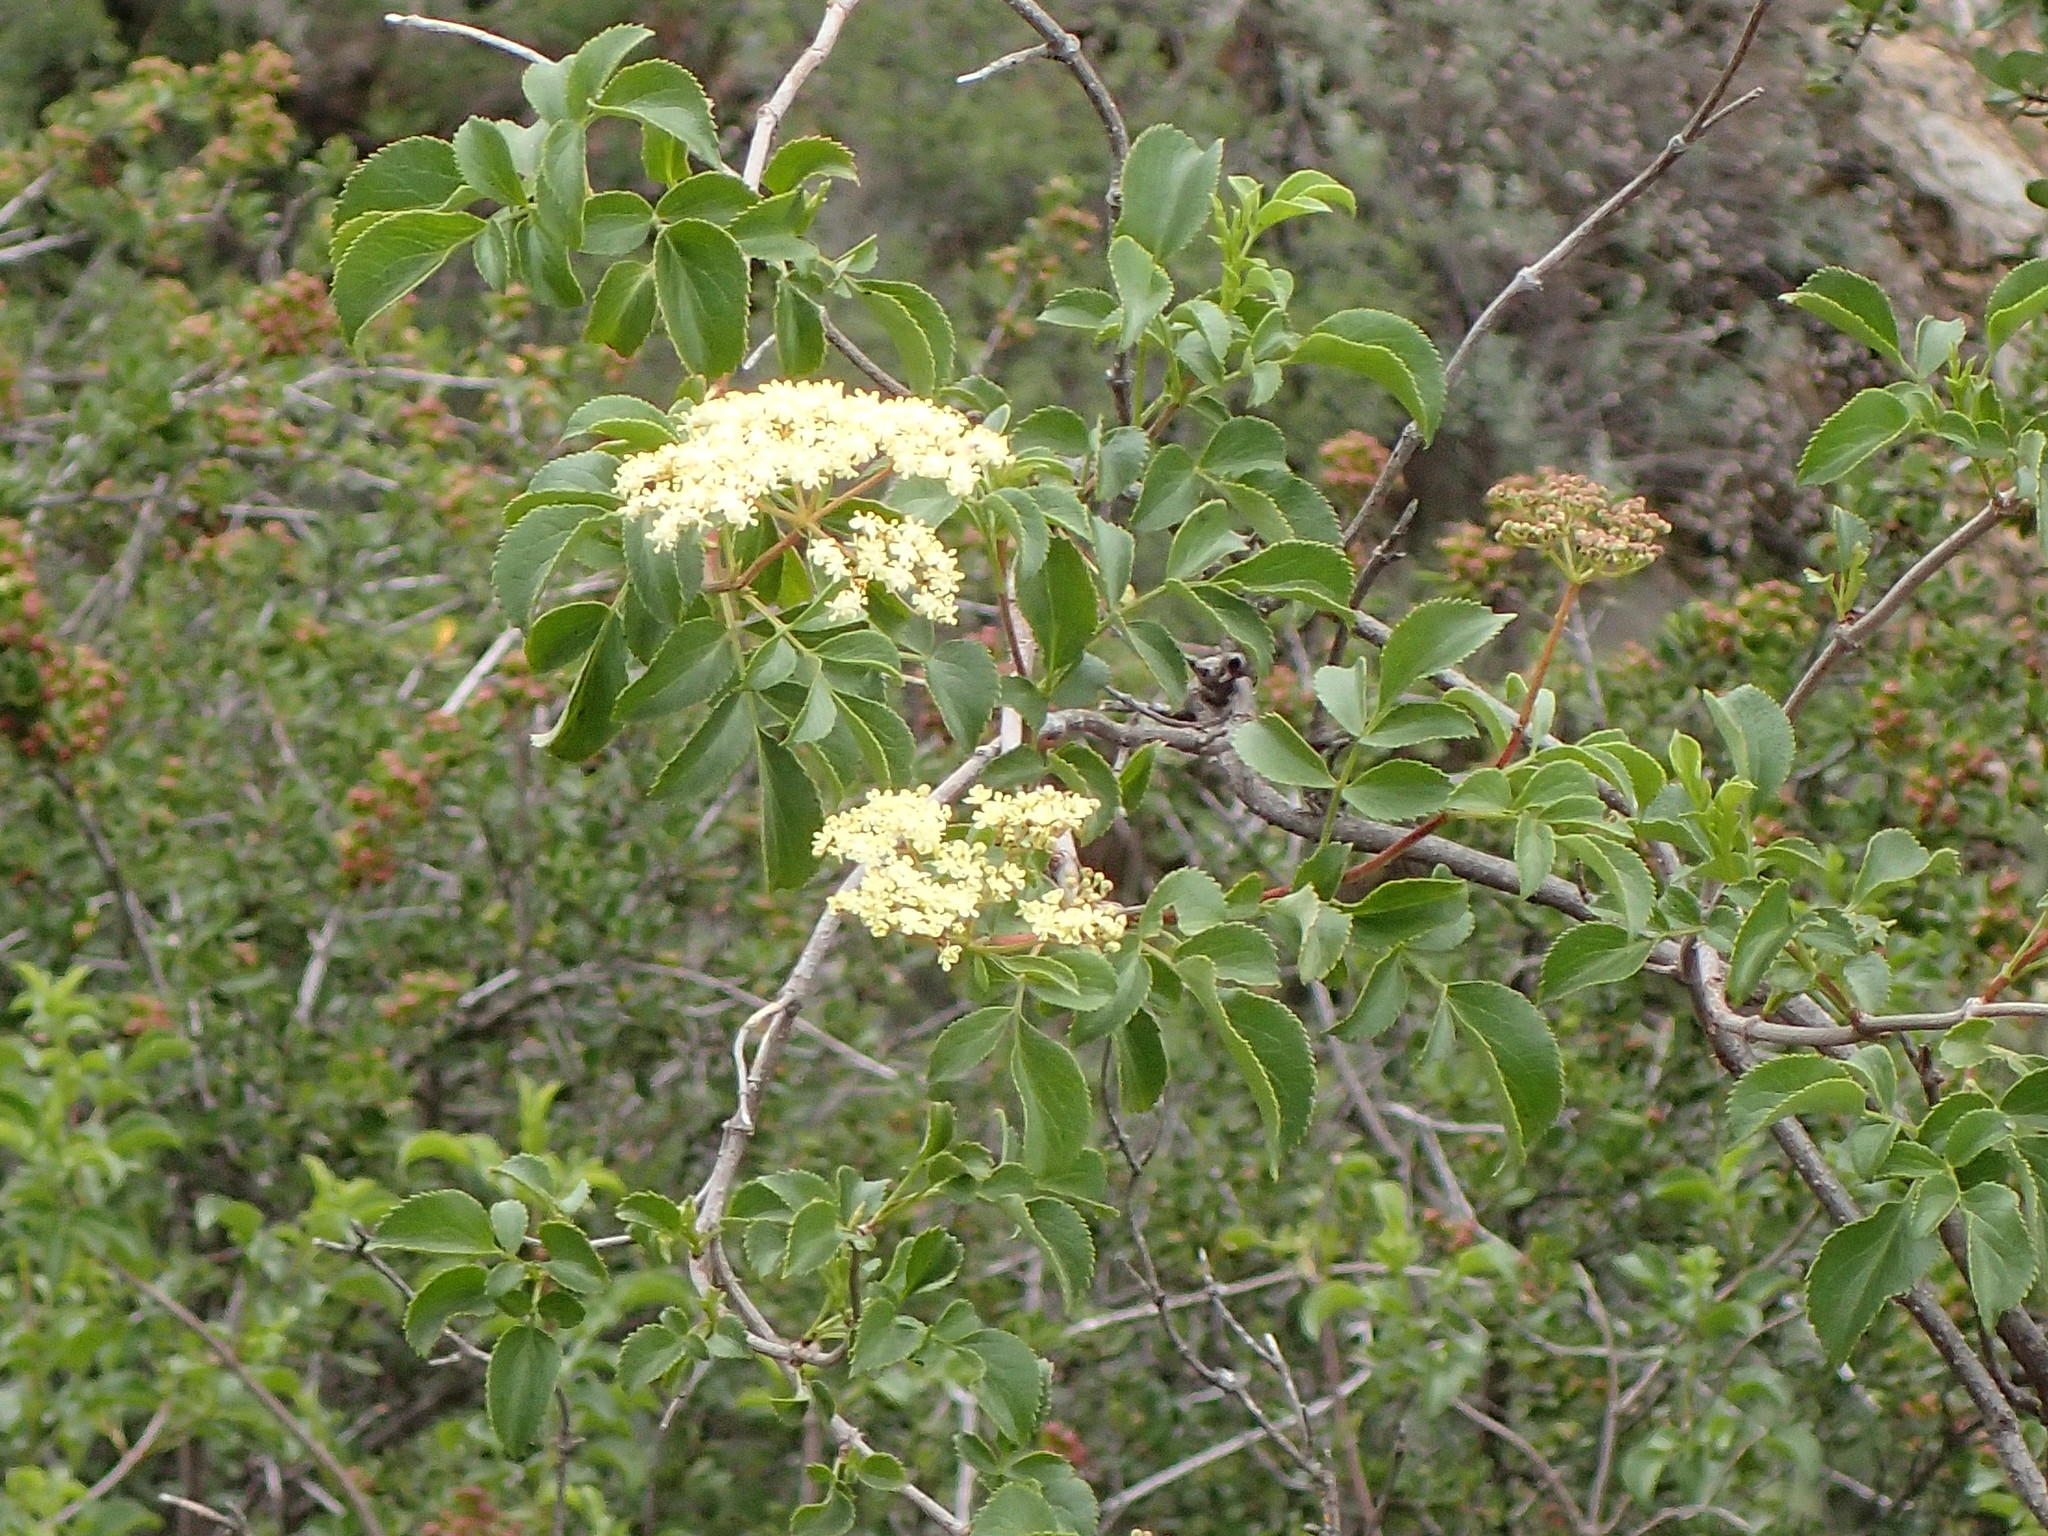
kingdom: Plantae
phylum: Tracheophyta
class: Magnoliopsida
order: Dipsacales
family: Viburnaceae
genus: Sambucus
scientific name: Sambucus cerulea
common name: Blue elder
